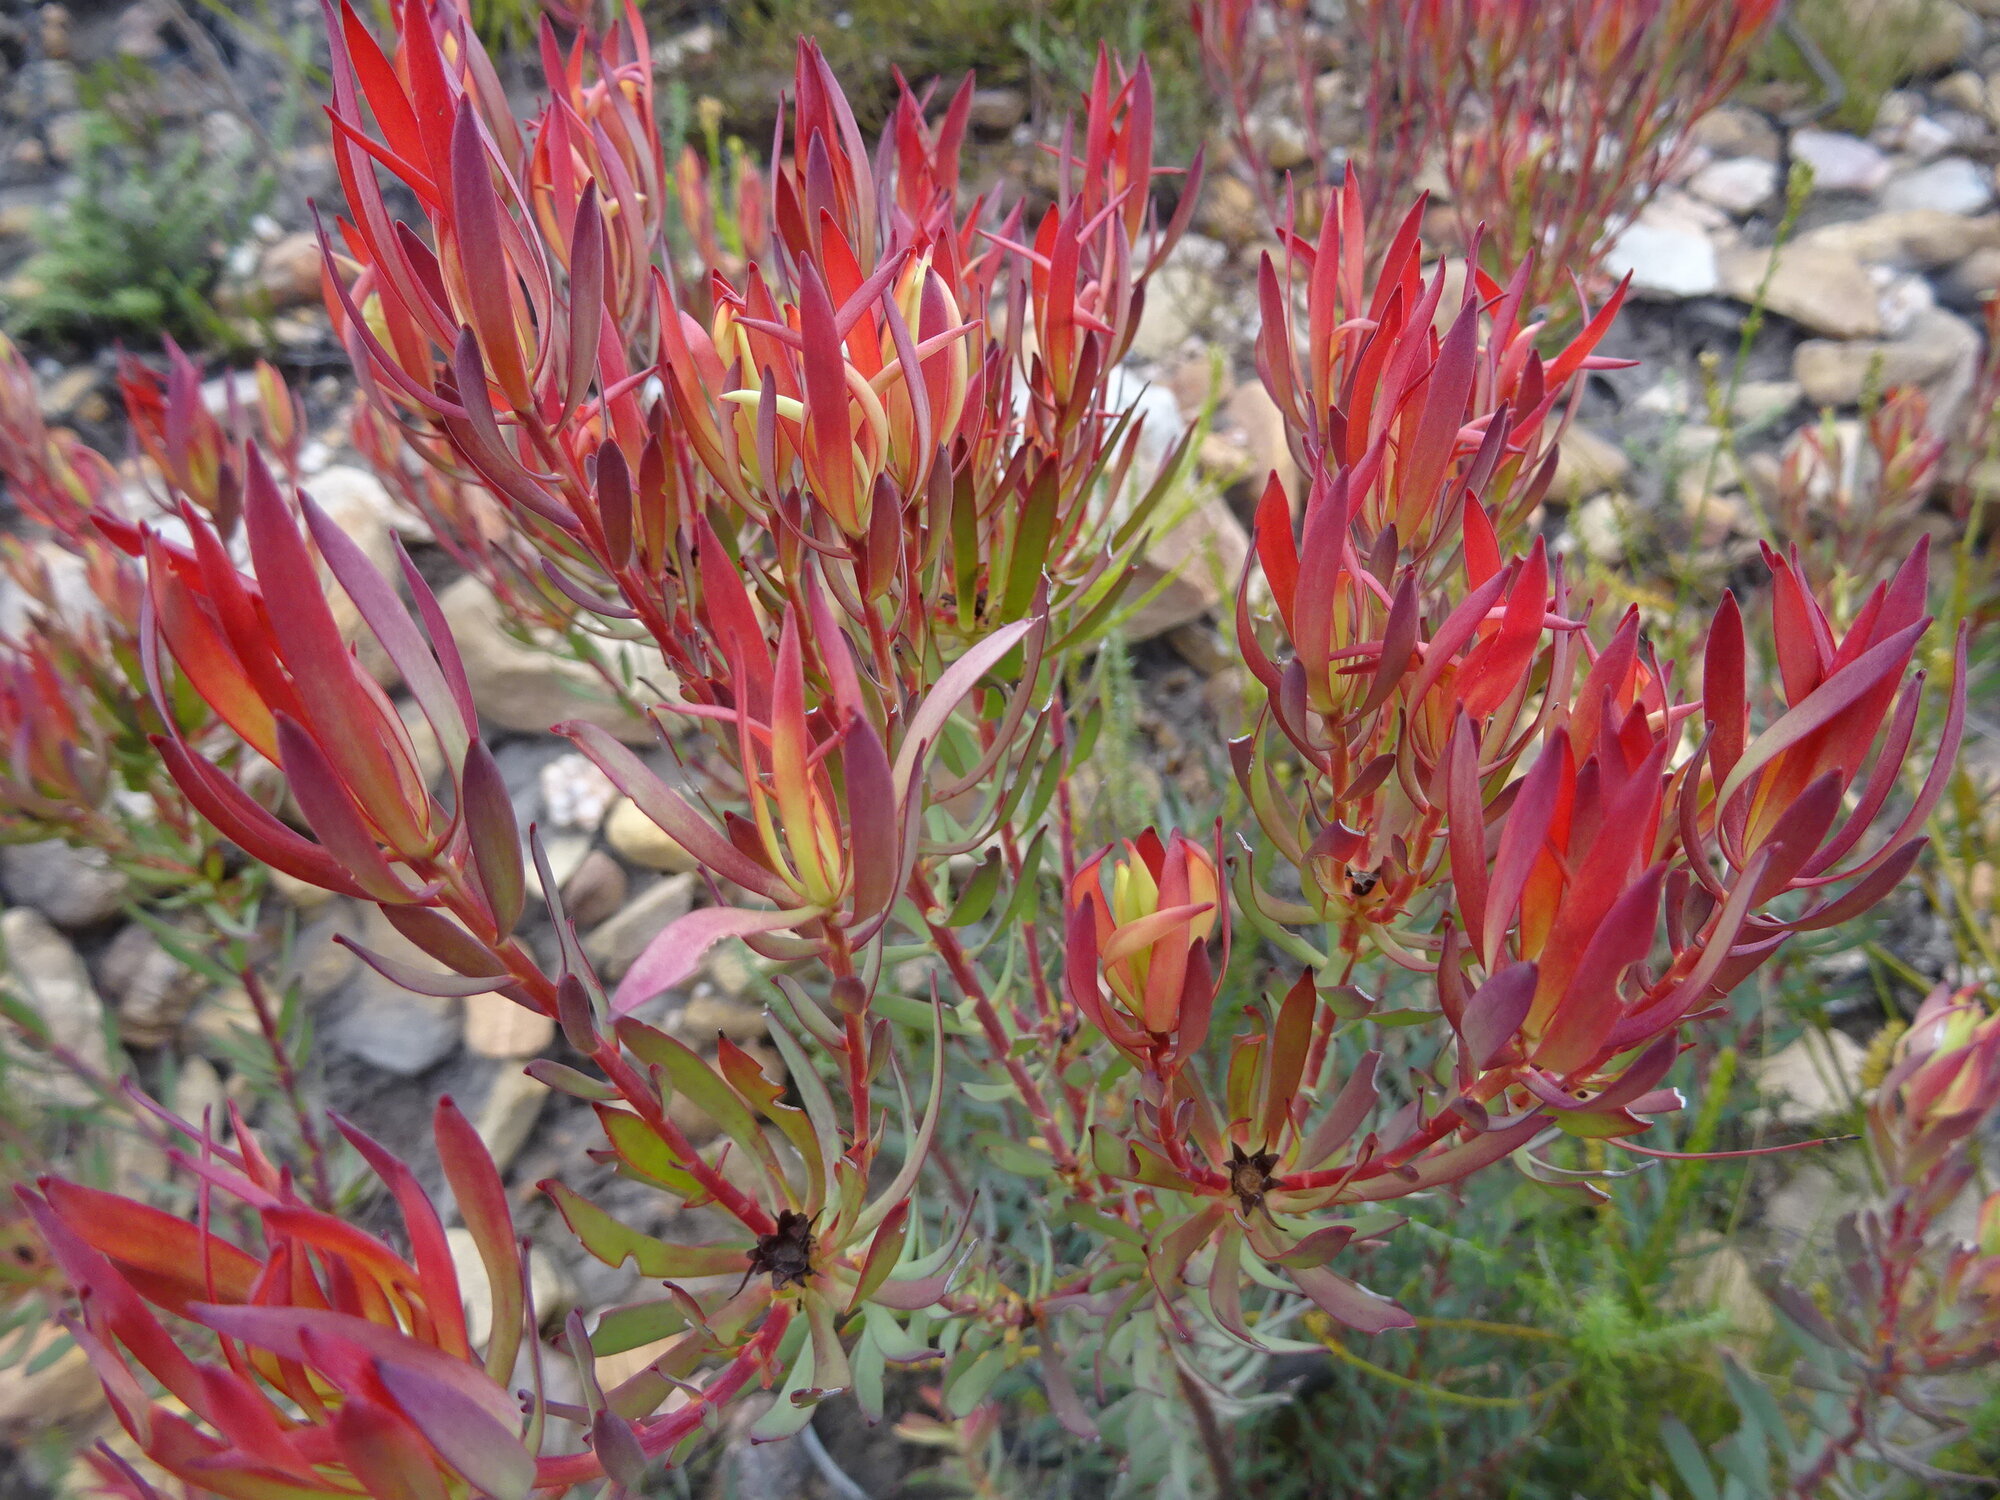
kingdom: Plantae
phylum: Tracheophyta
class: Magnoliopsida
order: Proteales
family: Proteaceae
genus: Leucadendron
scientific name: Leucadendron salignum
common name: Common sunshine conebush
